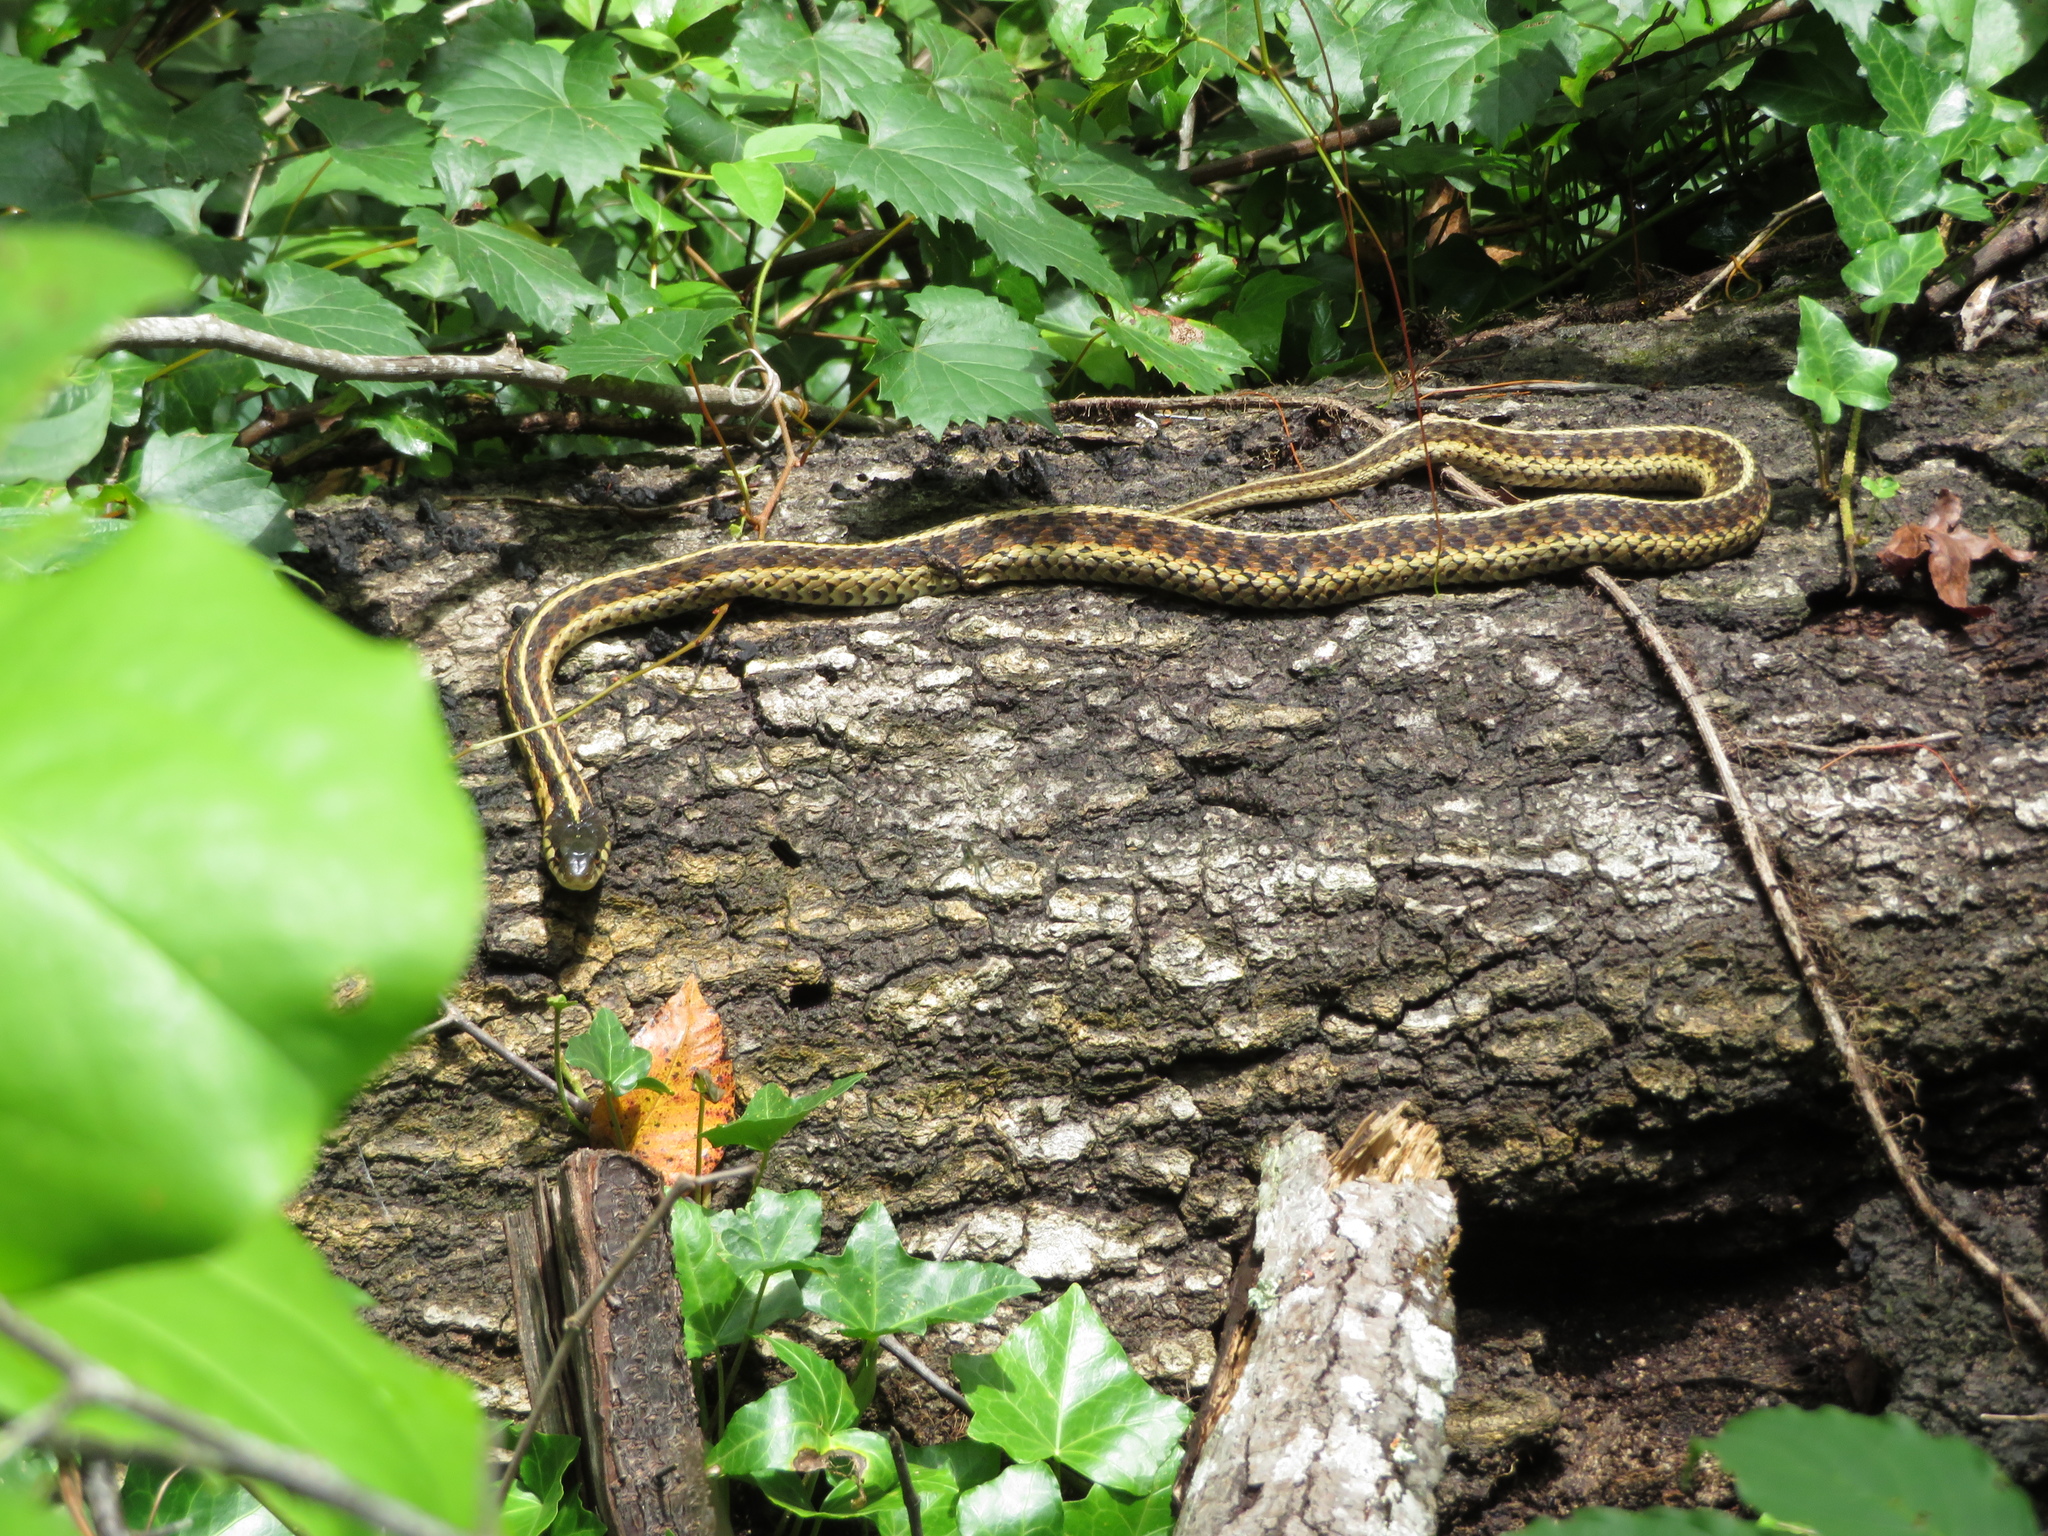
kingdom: Animalia
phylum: Chordata
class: Squamata
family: Colubridae
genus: Thamnophis
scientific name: Thamnophis sirtalis
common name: Common garter snake
